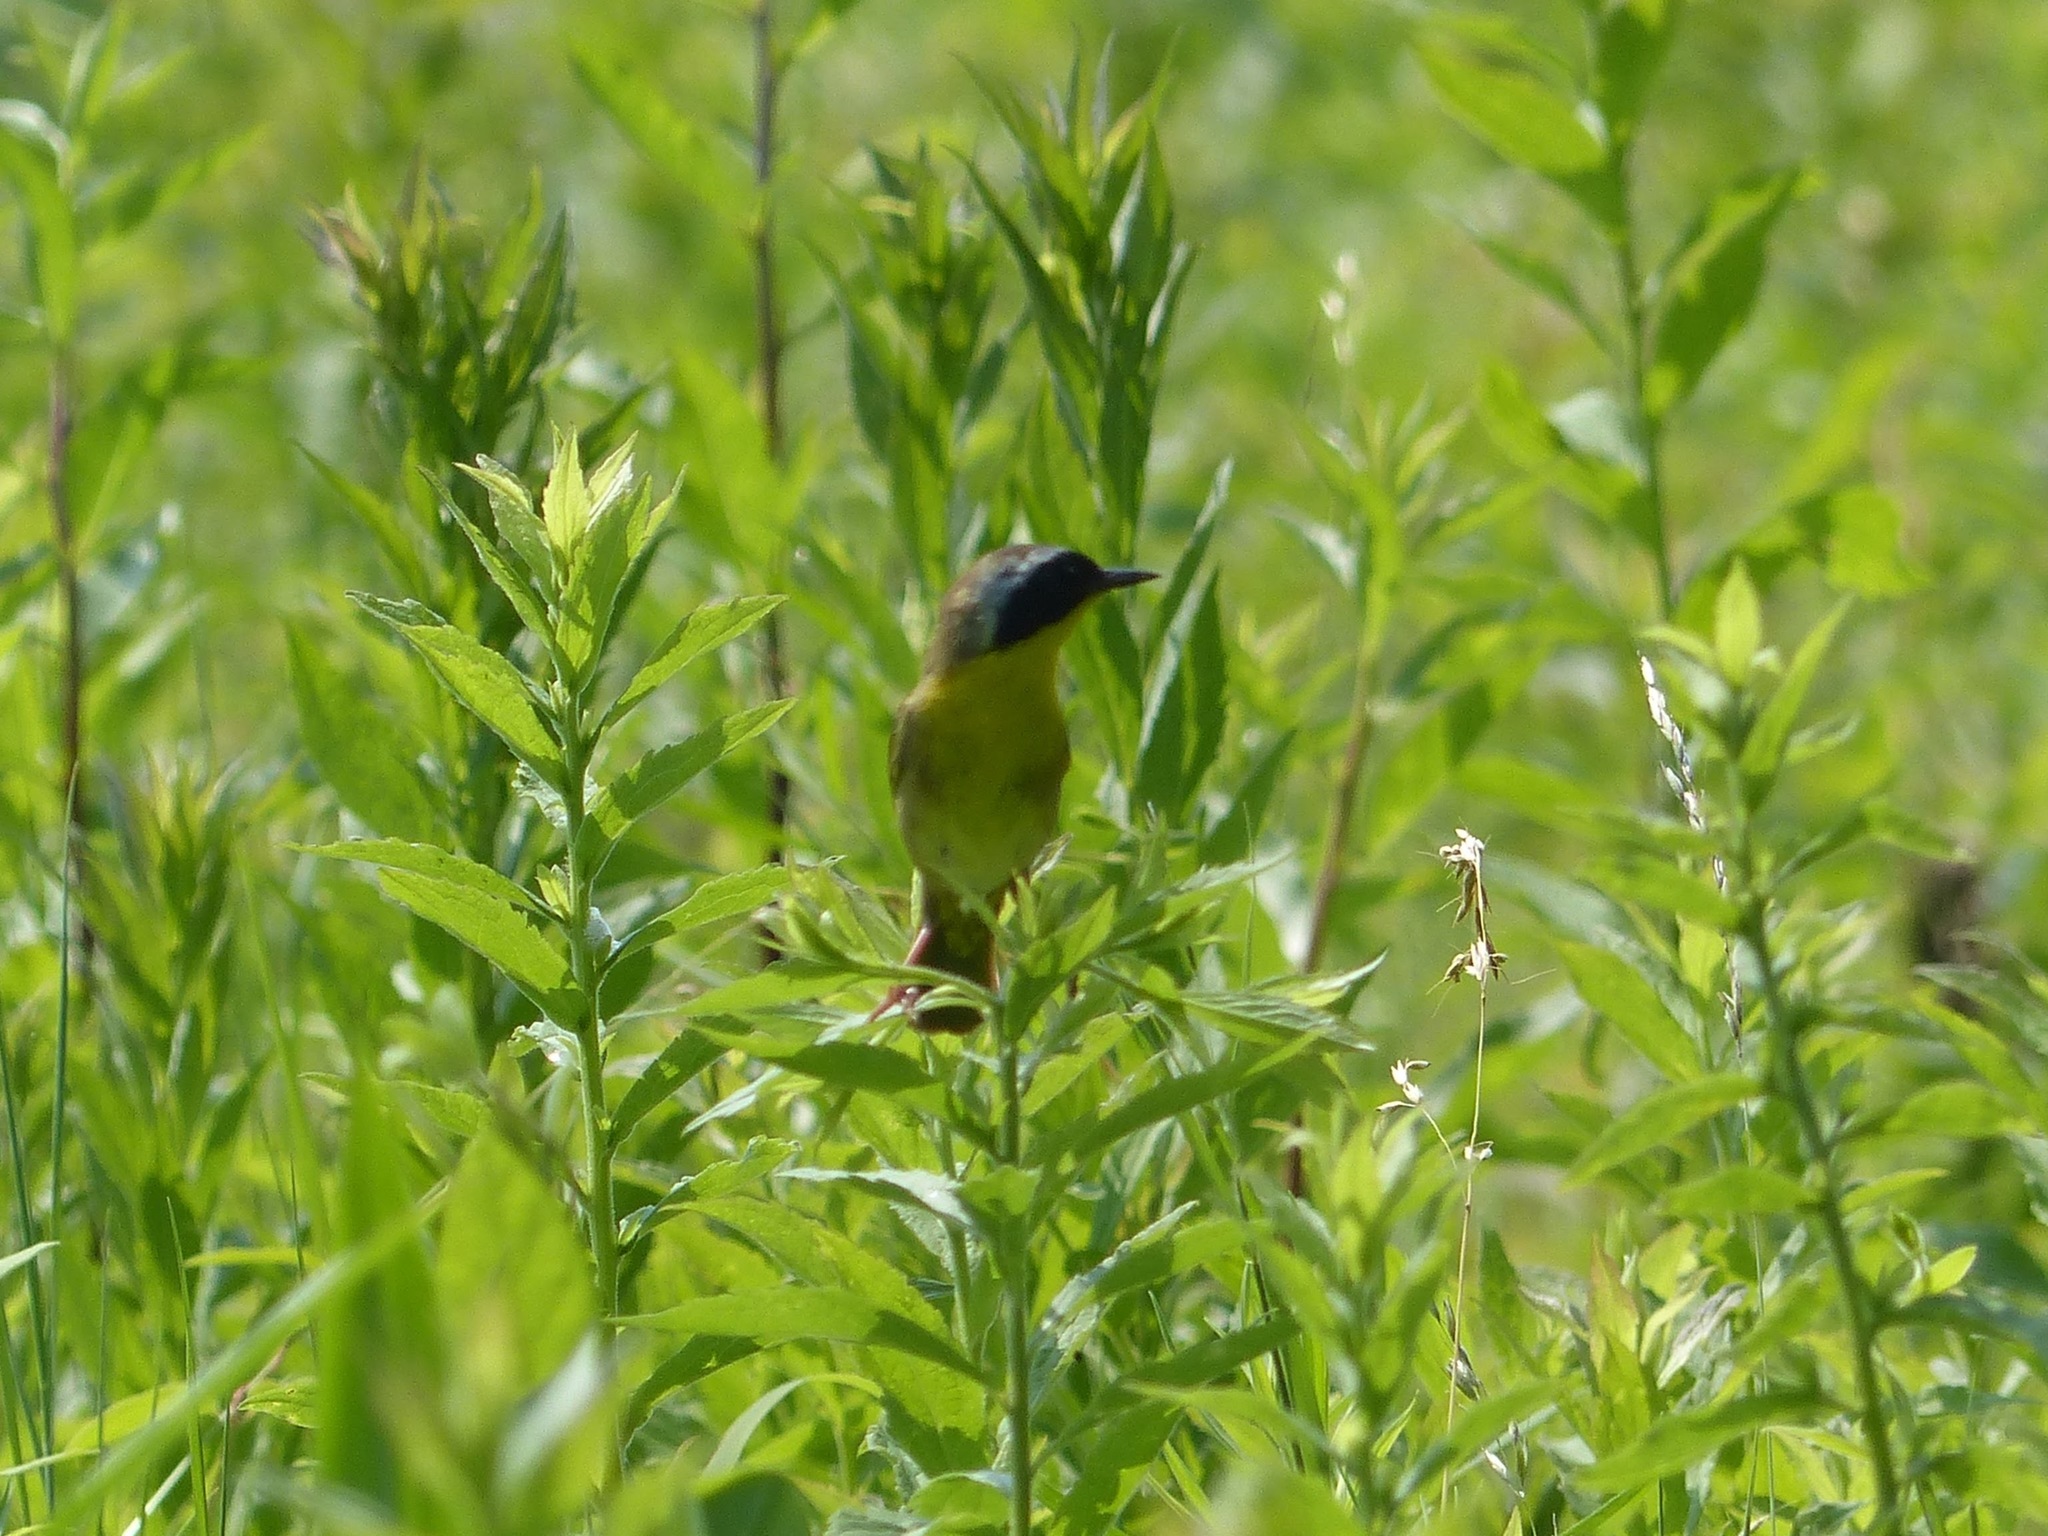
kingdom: Animalia
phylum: Chordata
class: Aves
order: Passeriformes
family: Parulidae
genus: Geothlypis
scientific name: Geothlypis trichas
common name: Common yellowthroat
